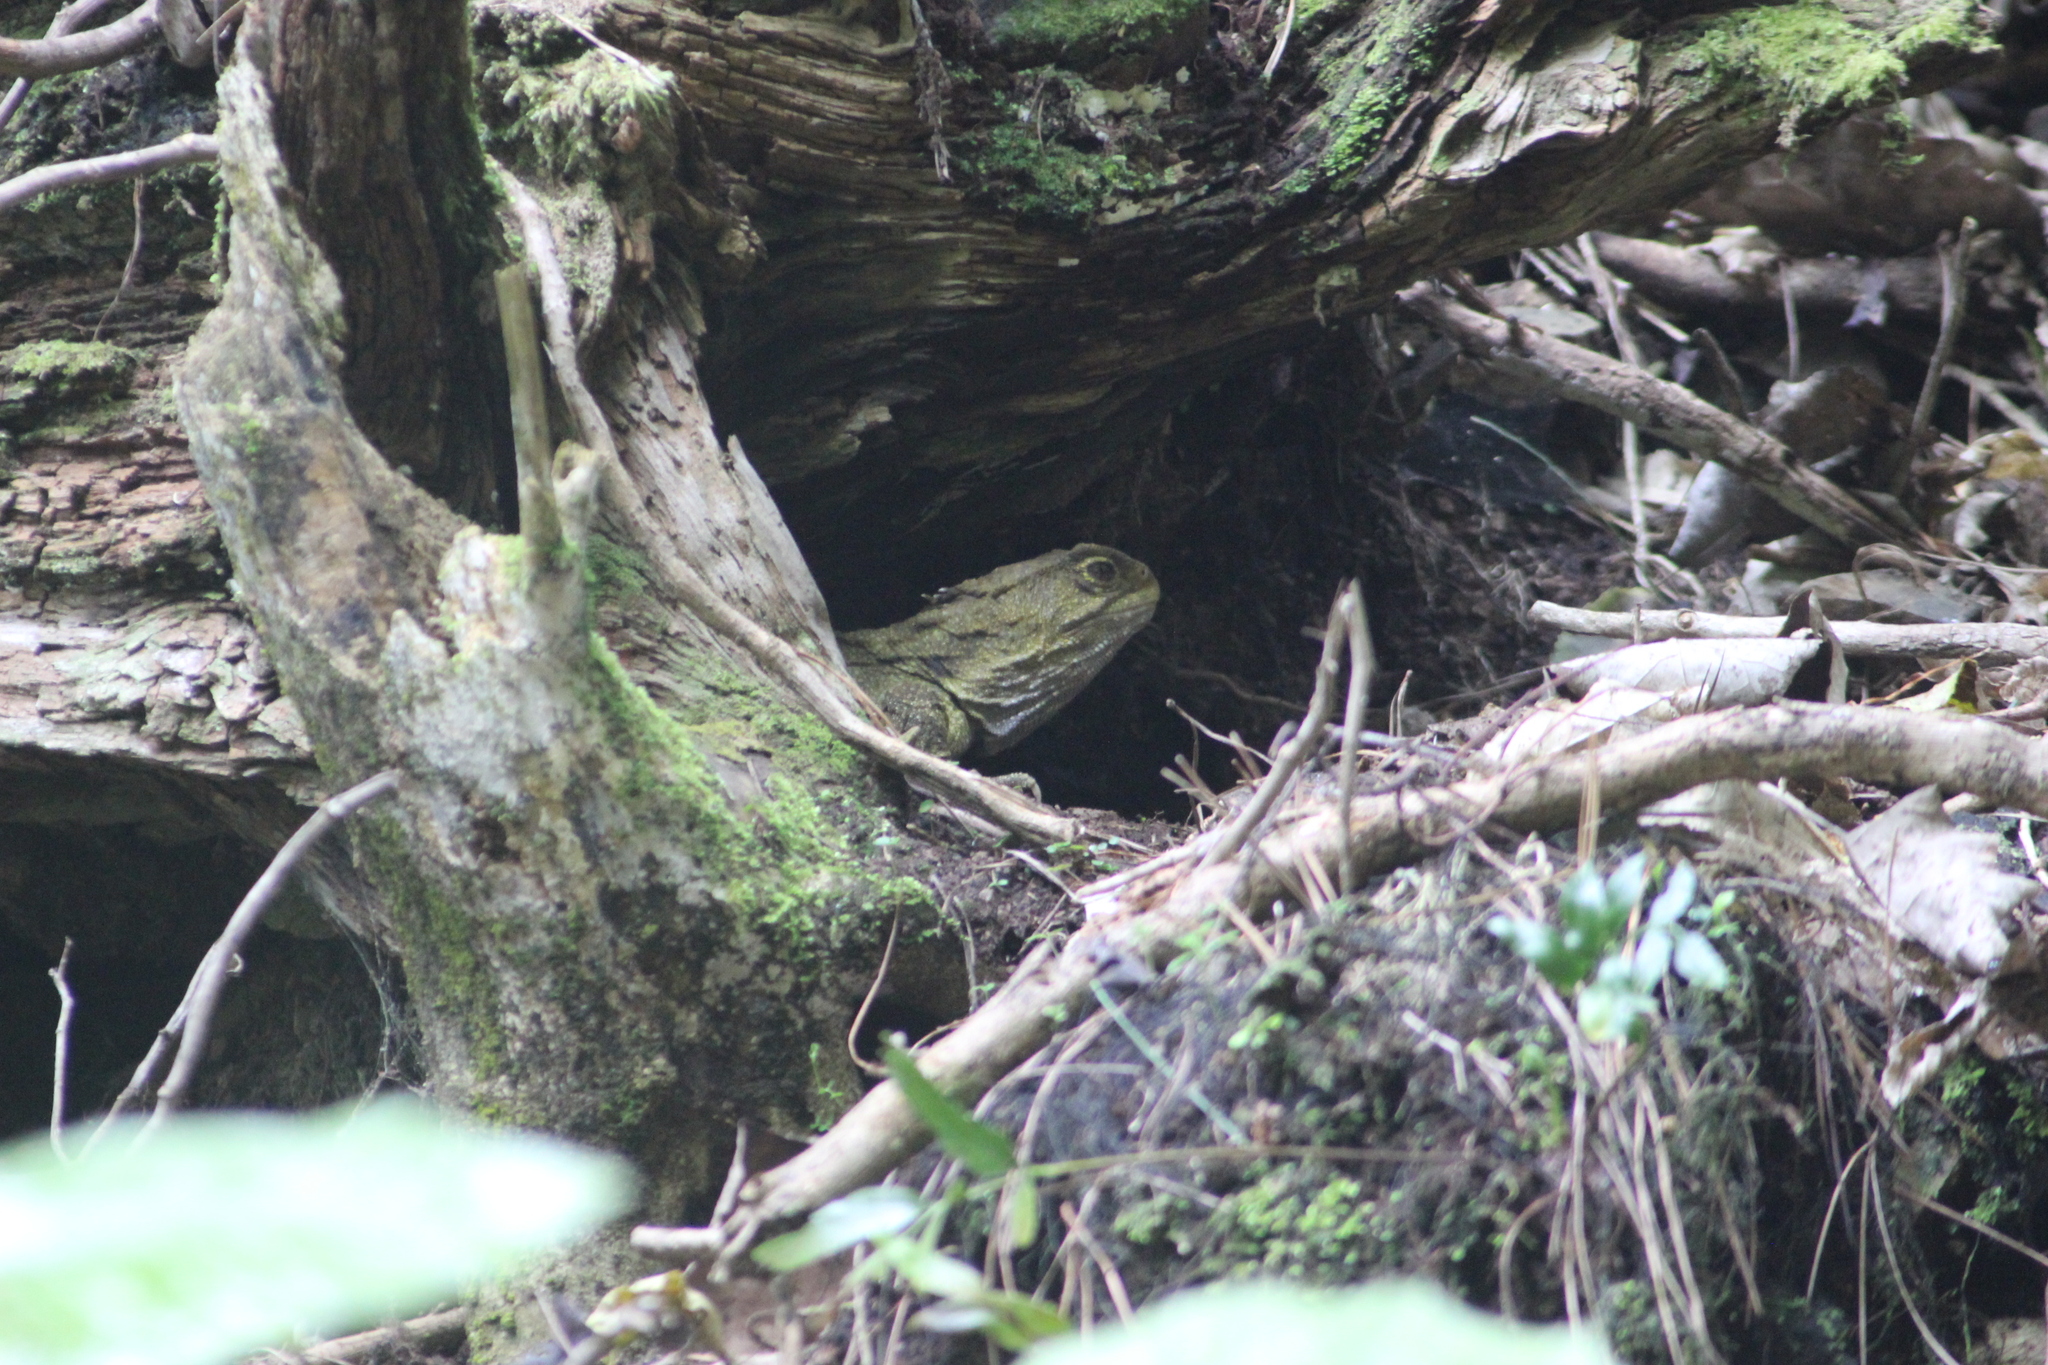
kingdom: Animalia
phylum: Chordata
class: Sphenodontia
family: Sphenodontidae
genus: Sphenodon
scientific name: Sphenodon punctatus
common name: Tuatara
